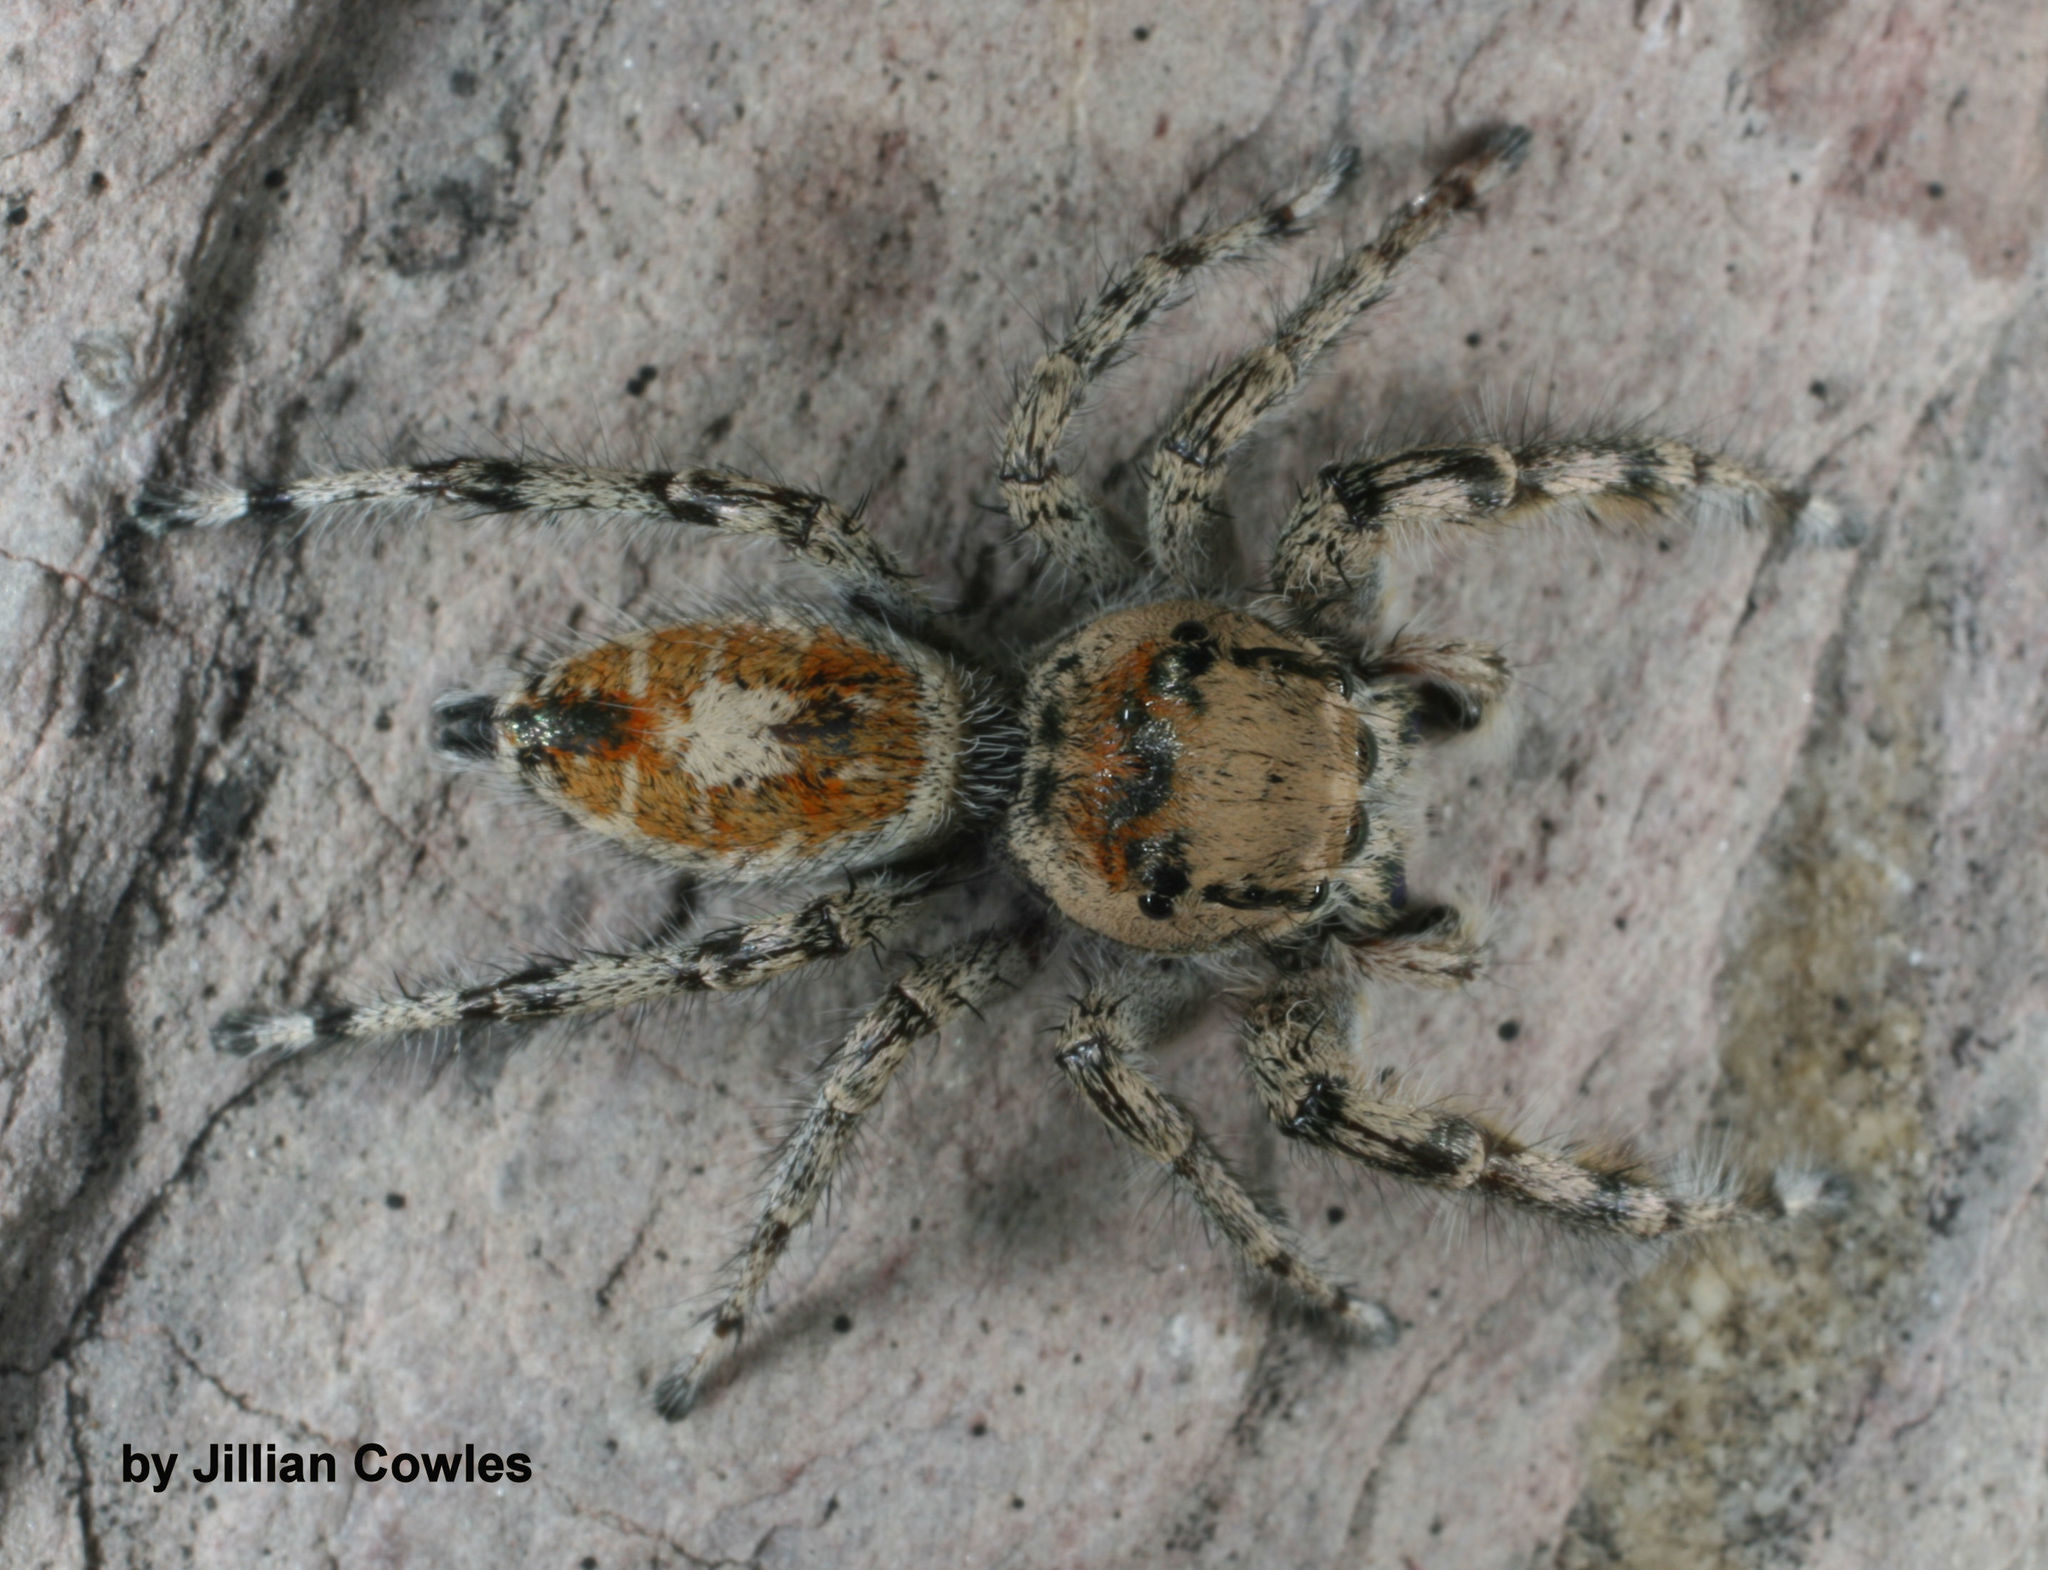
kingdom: Animalia
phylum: Arthropoda
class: Arachnida
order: Araneae
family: Salticidae
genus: Phidippus
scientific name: Phidippus phoenix
